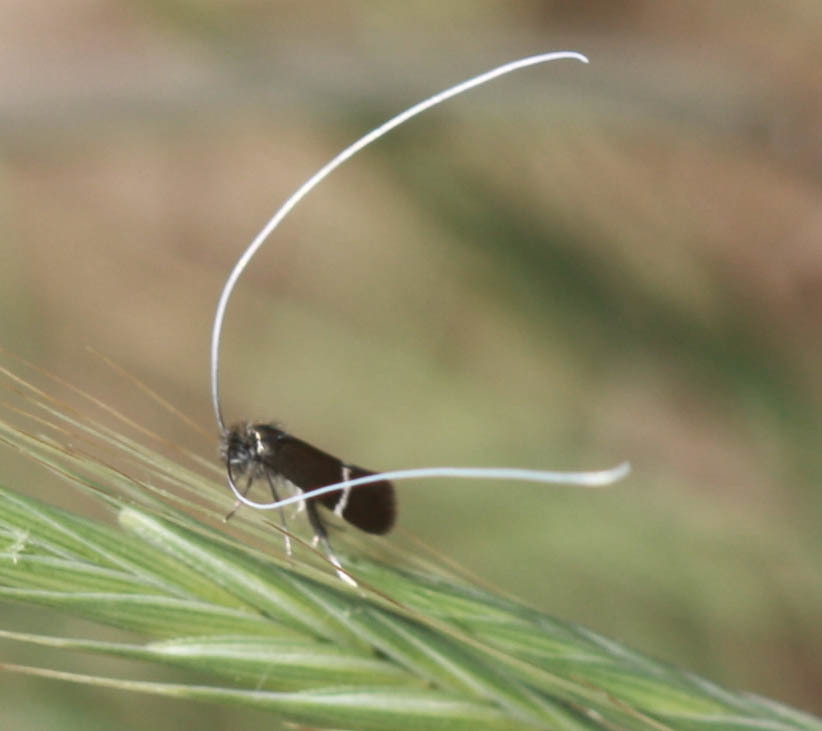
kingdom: Animalia
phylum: Arthropoda
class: Insecta
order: Lepidoptera
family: Adelidae
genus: Adela
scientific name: Adela singulella
